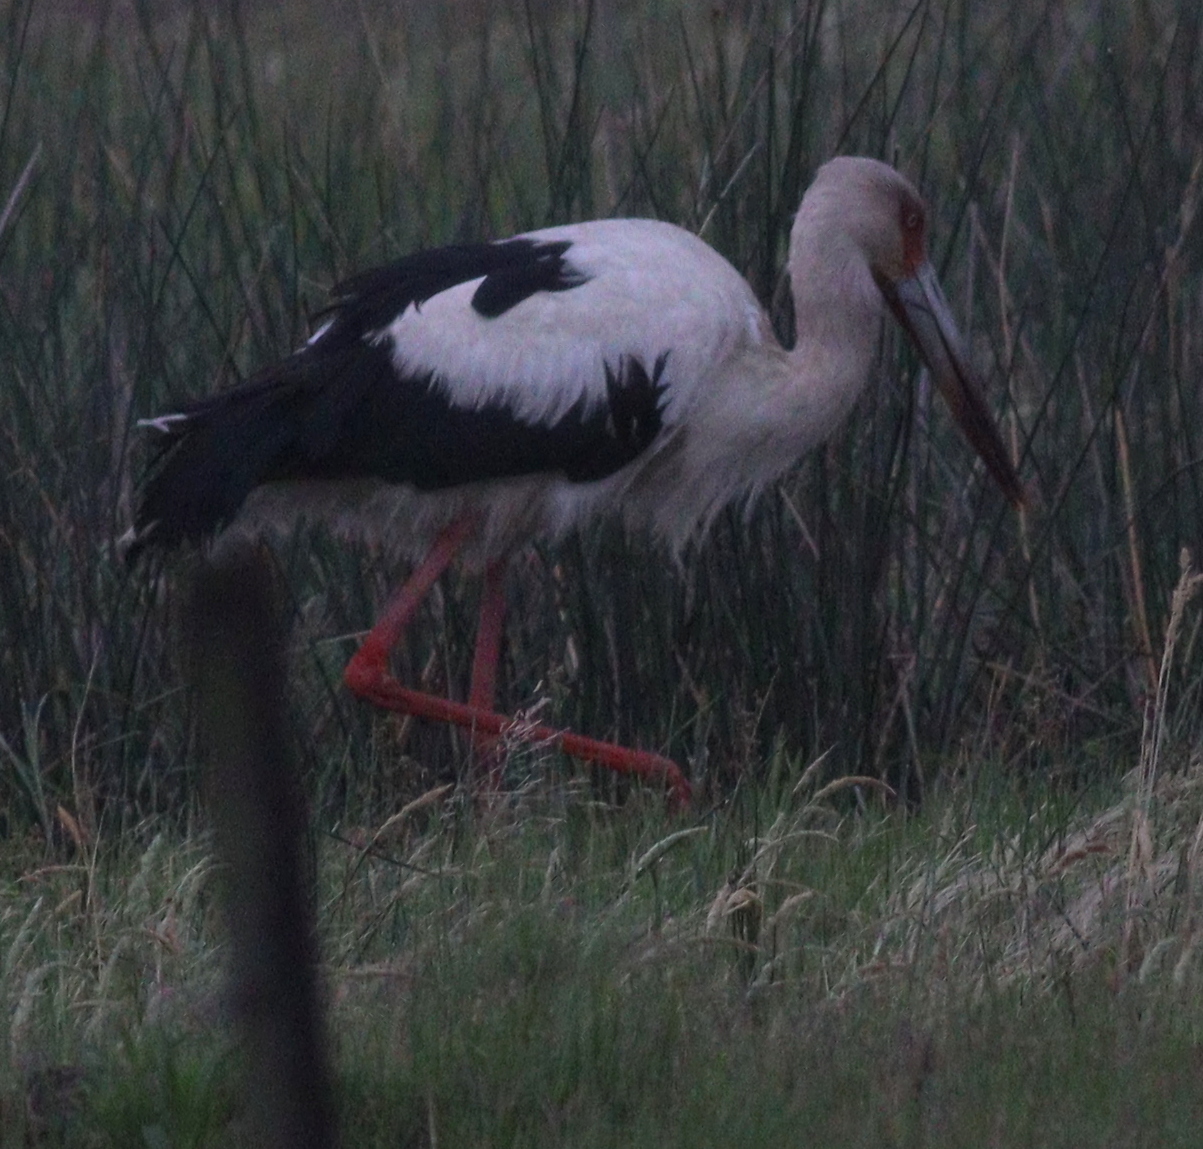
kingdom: Animalia
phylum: Chordata
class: Aves
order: Ciconiiformes
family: Ciconiidae
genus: Ciconia
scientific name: Ciconia maguari
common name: Maguari stork
